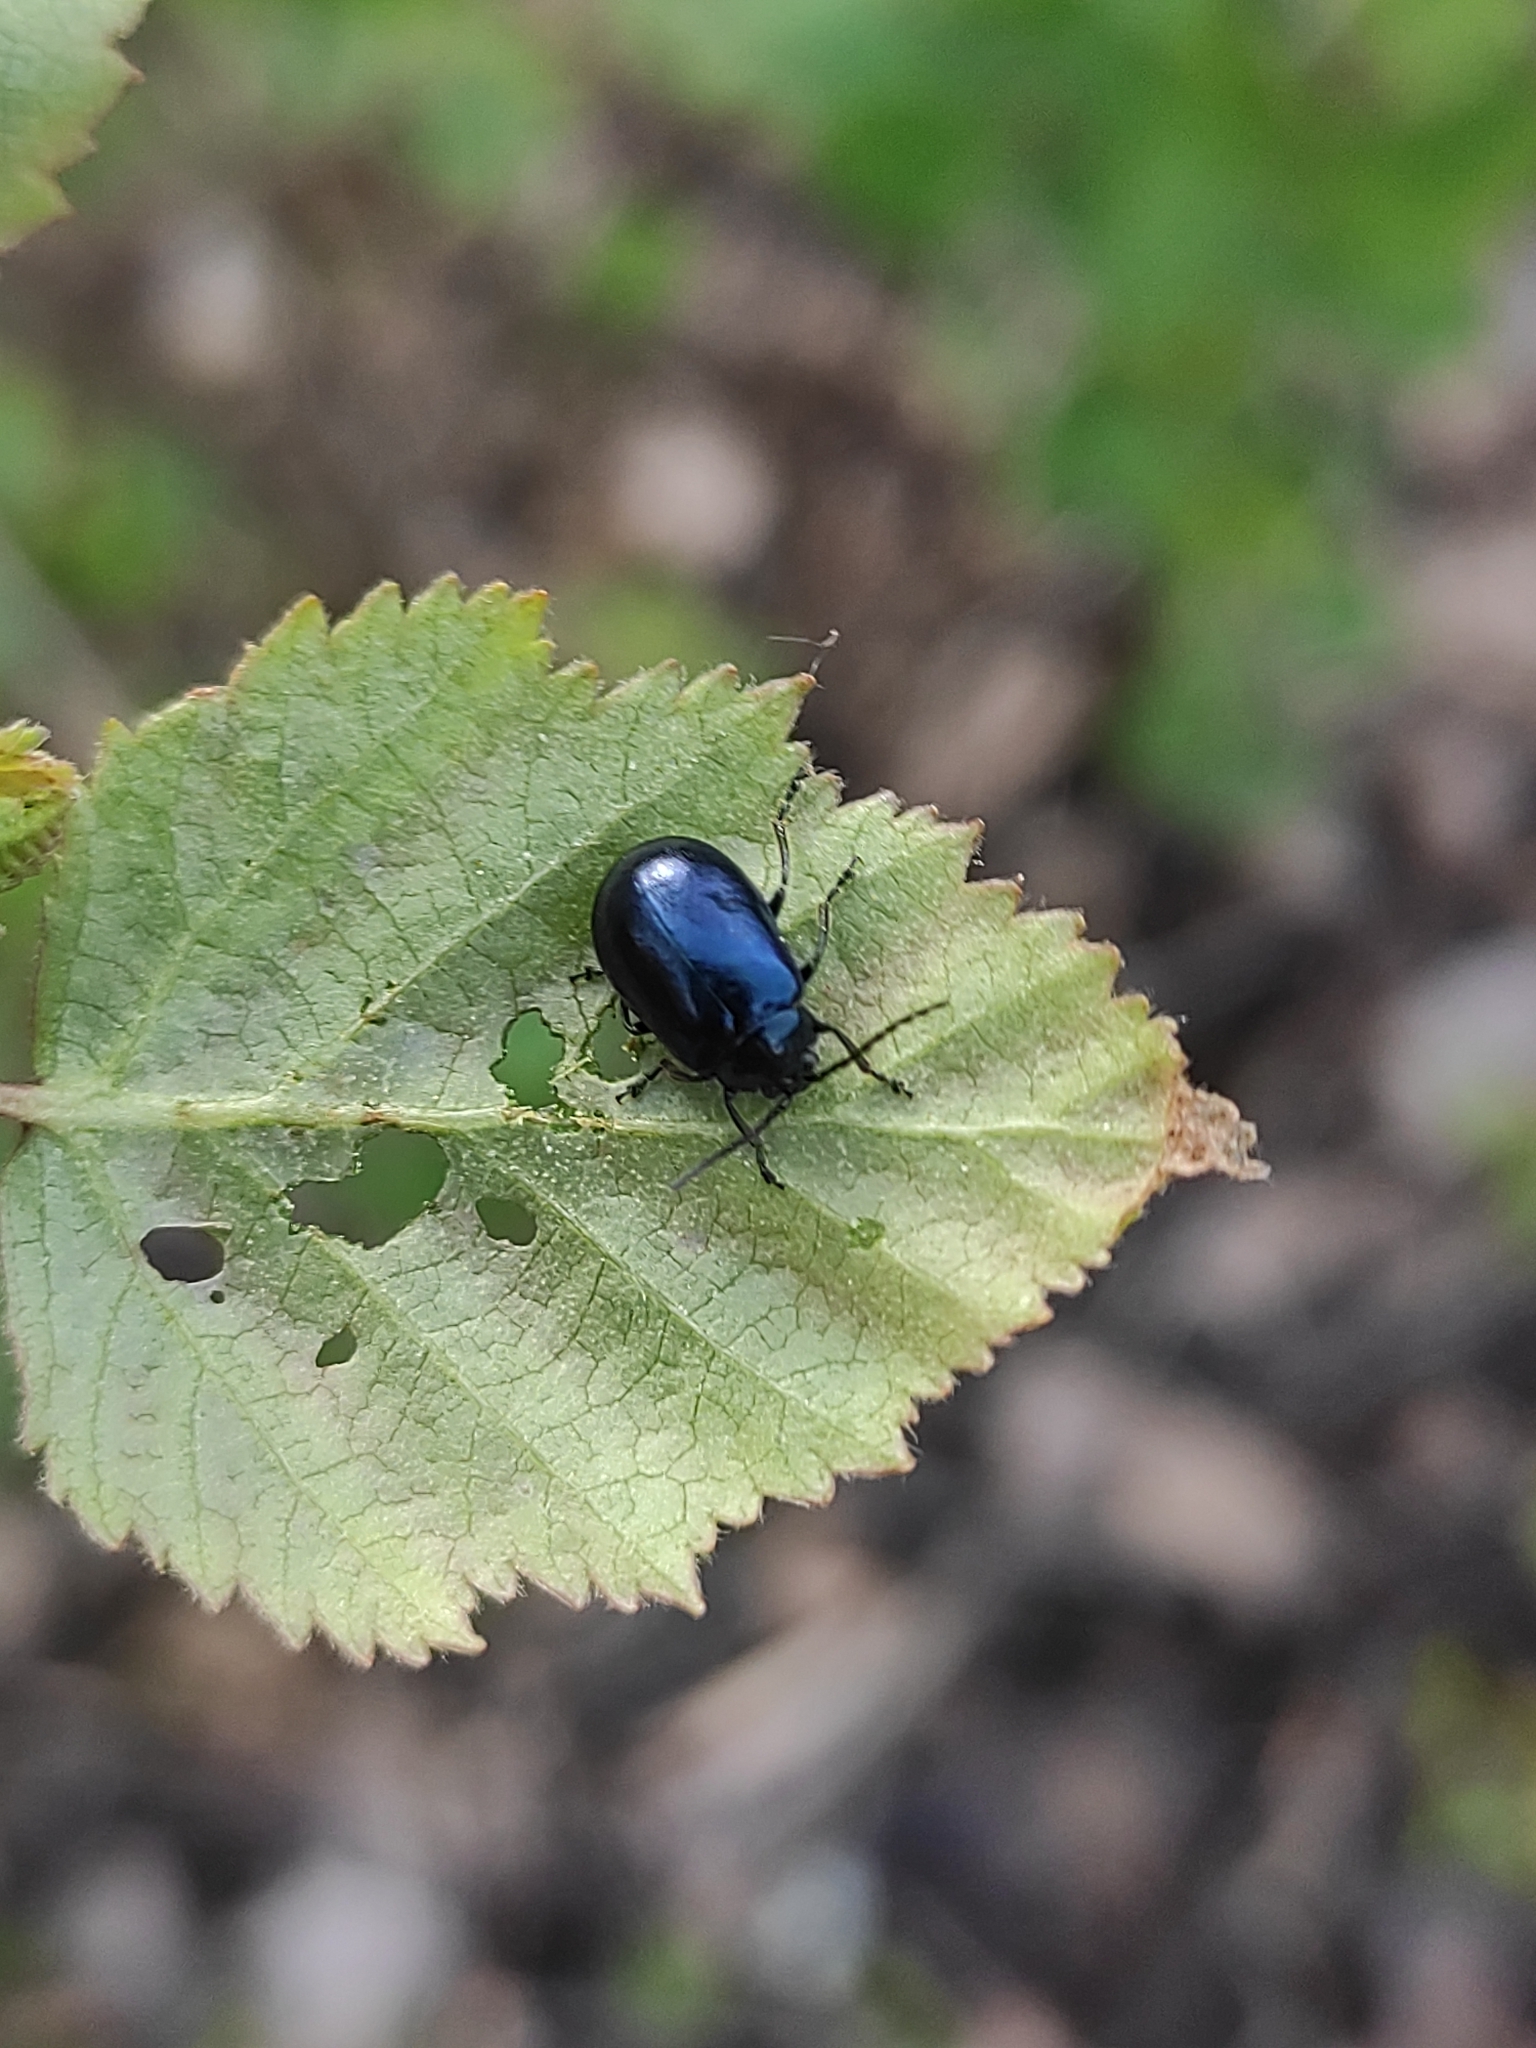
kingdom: Animalia
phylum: Arthropoda
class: Insecta
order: Coleoptera
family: Chrysomelidae
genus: Agelastica
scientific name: Agelastica alni
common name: Alder leaf beetle
